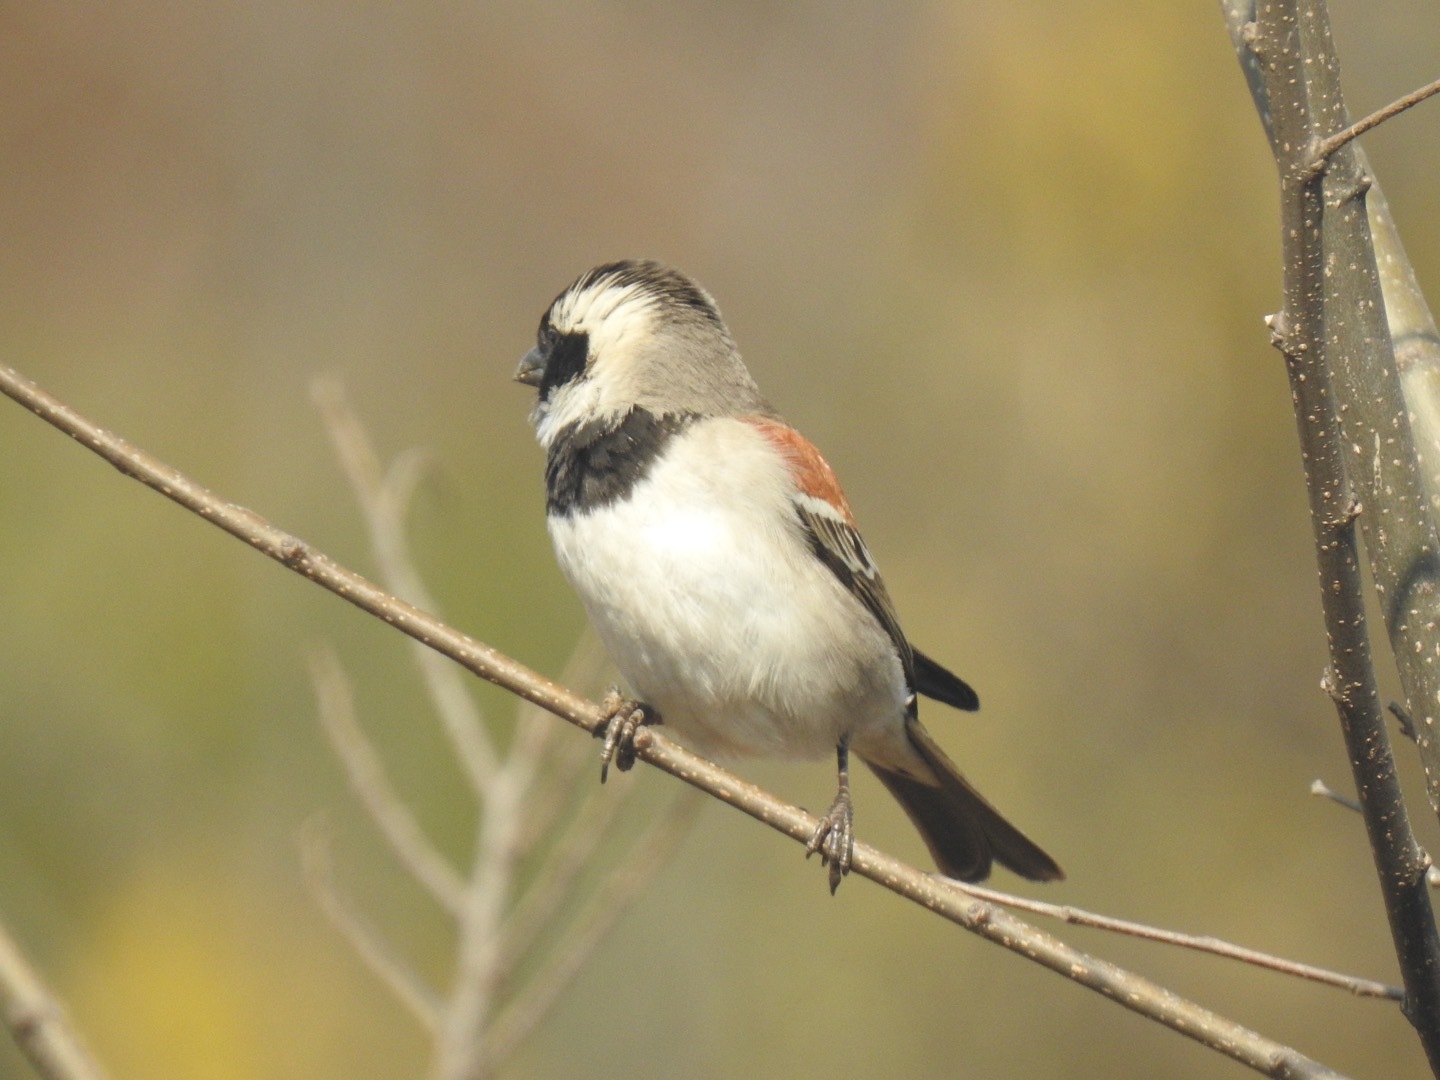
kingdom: Animalia
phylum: Chordata
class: Aves
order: Passeriformes
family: Passeridae
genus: Passer
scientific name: Passer melanurus
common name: Cape sparrow
